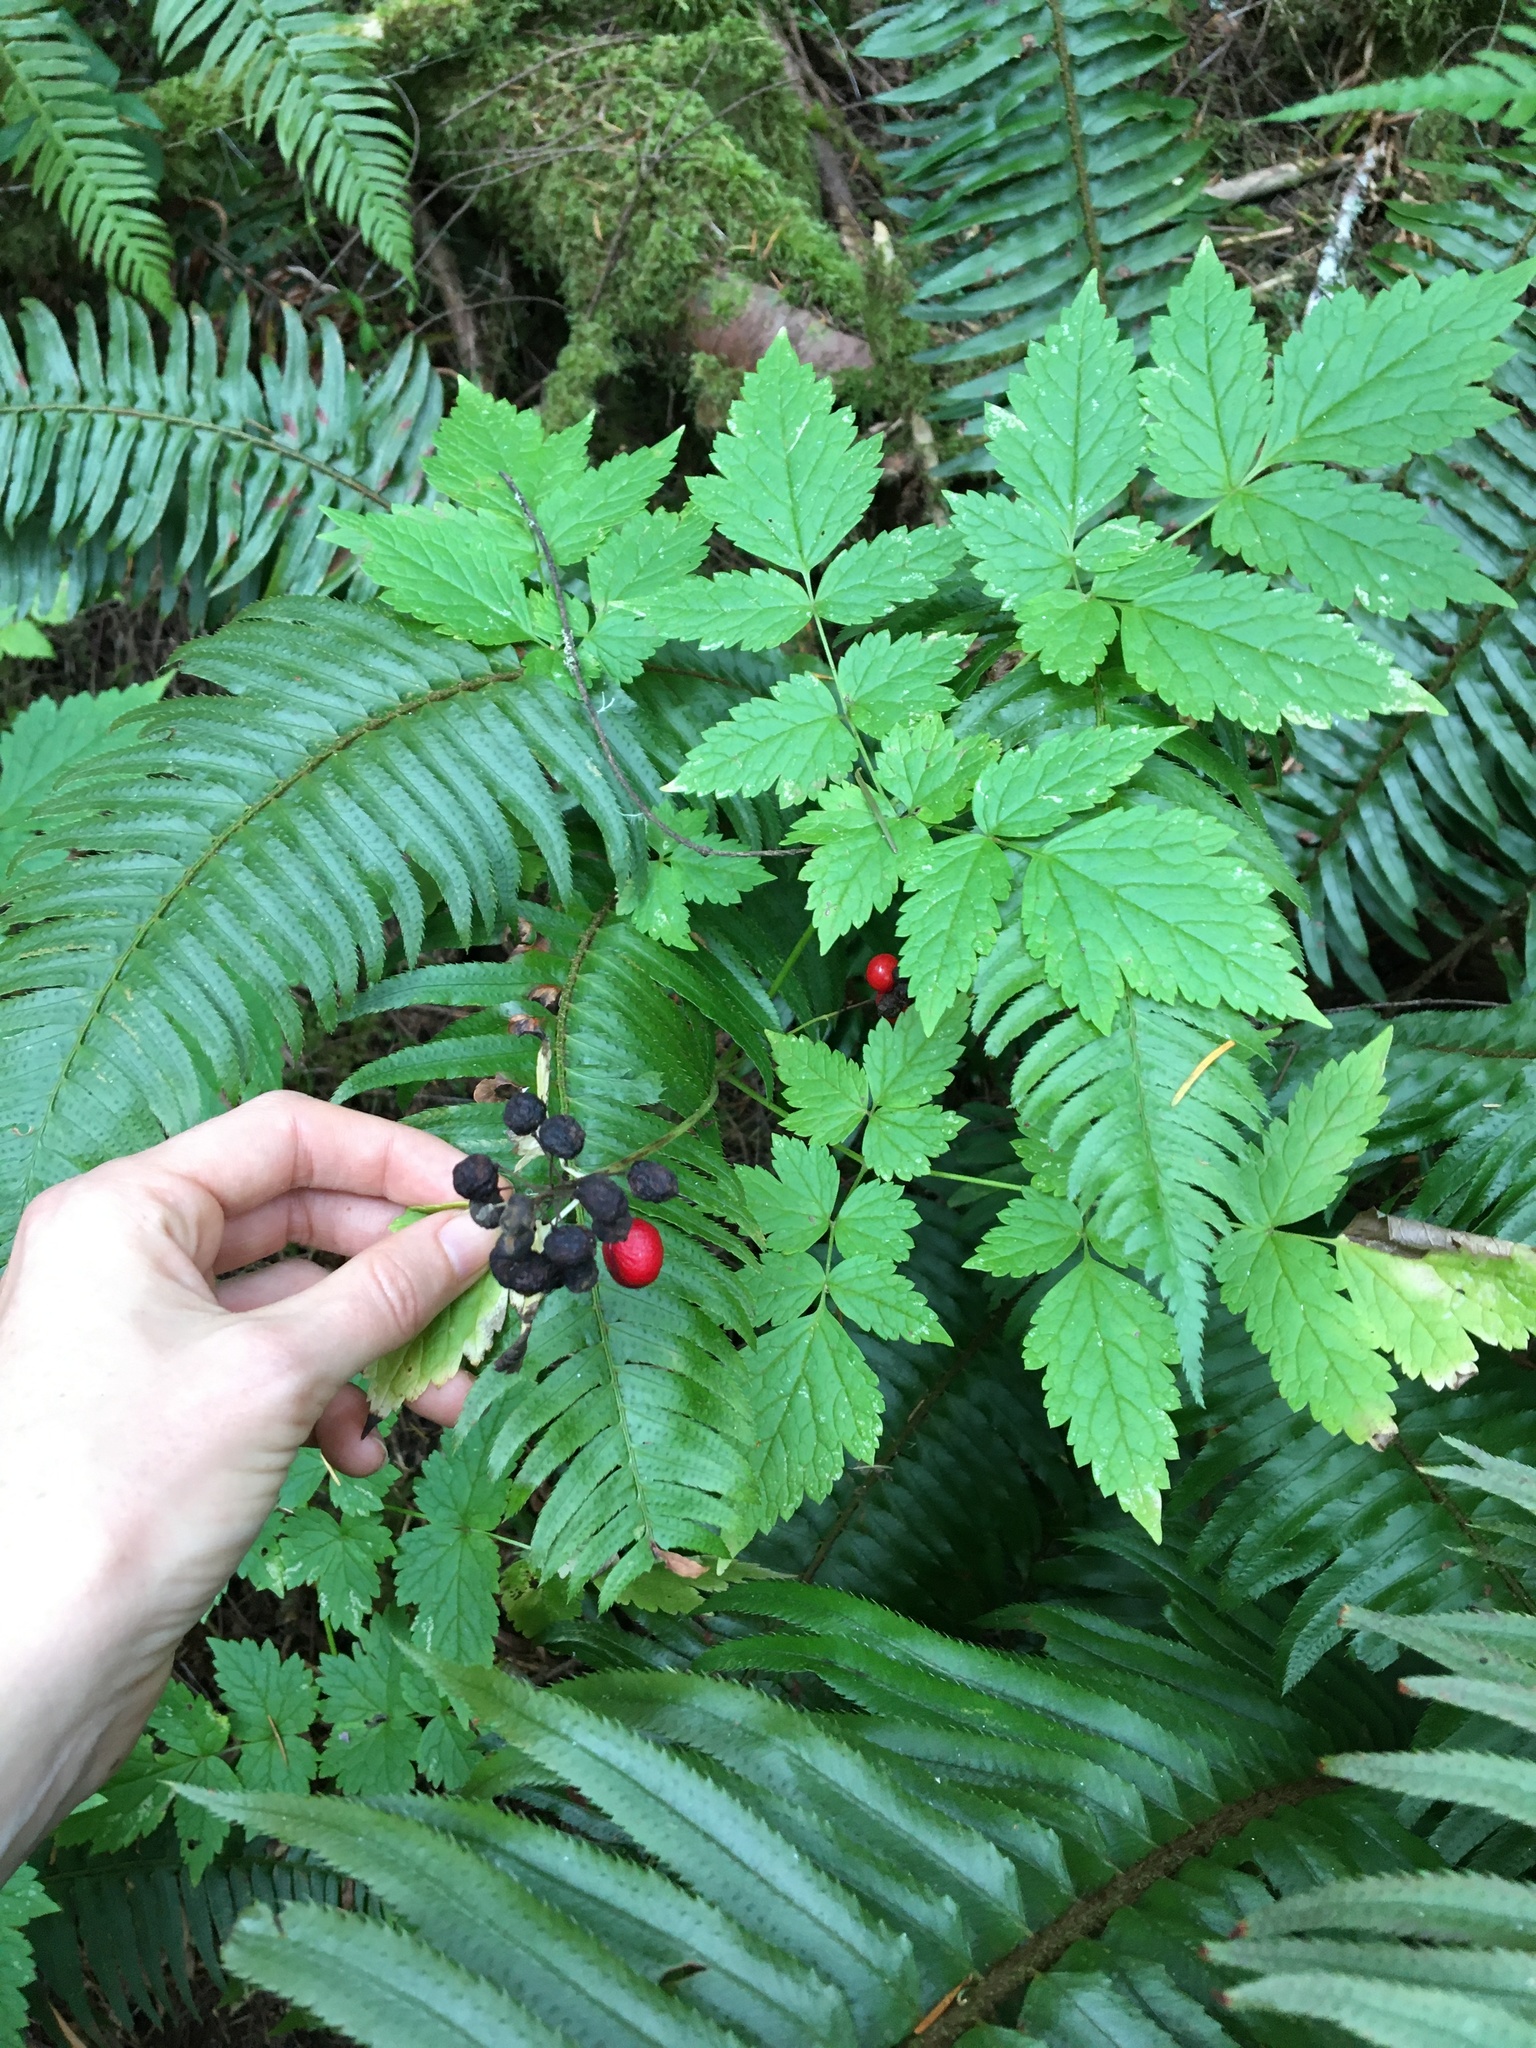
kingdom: Plantae
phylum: Tracheophyta
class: Magnoliopsida
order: Ranunculales
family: Ranunculaceae
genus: Actaea
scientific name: Actaea rubra
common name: Red baneberry
